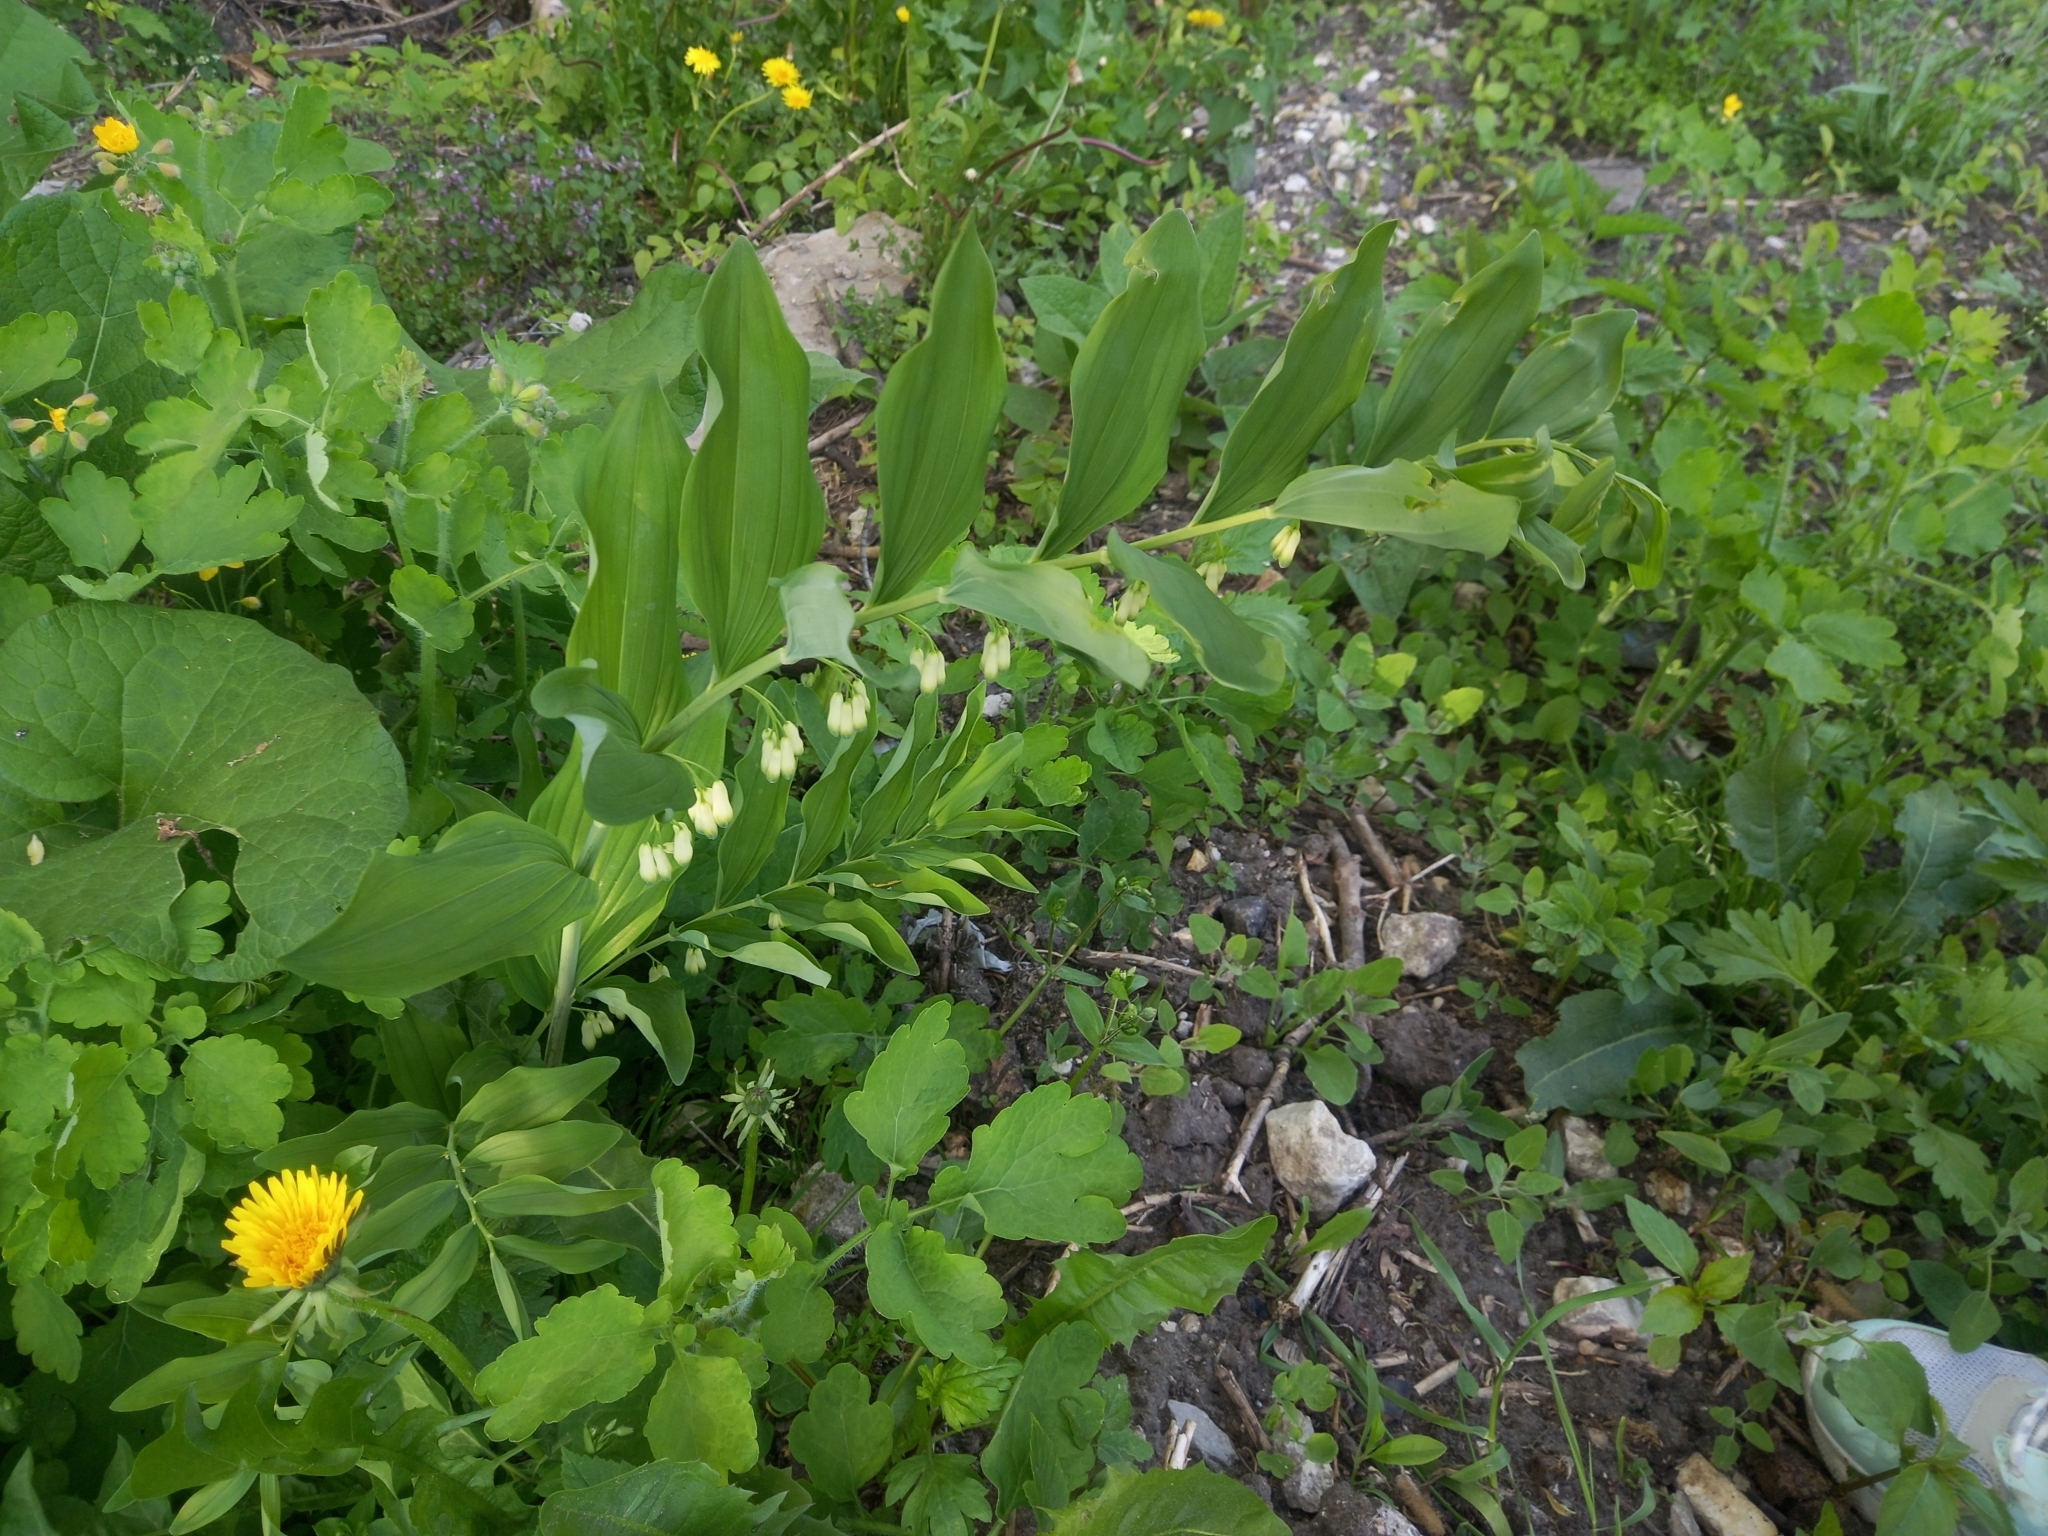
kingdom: Plantae
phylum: Tracheophyta
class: Liliopsida
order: Asparagales
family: Asparagaceae
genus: Polygonatum
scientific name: Polygonatum multiflorum
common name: Solomon's-seal
